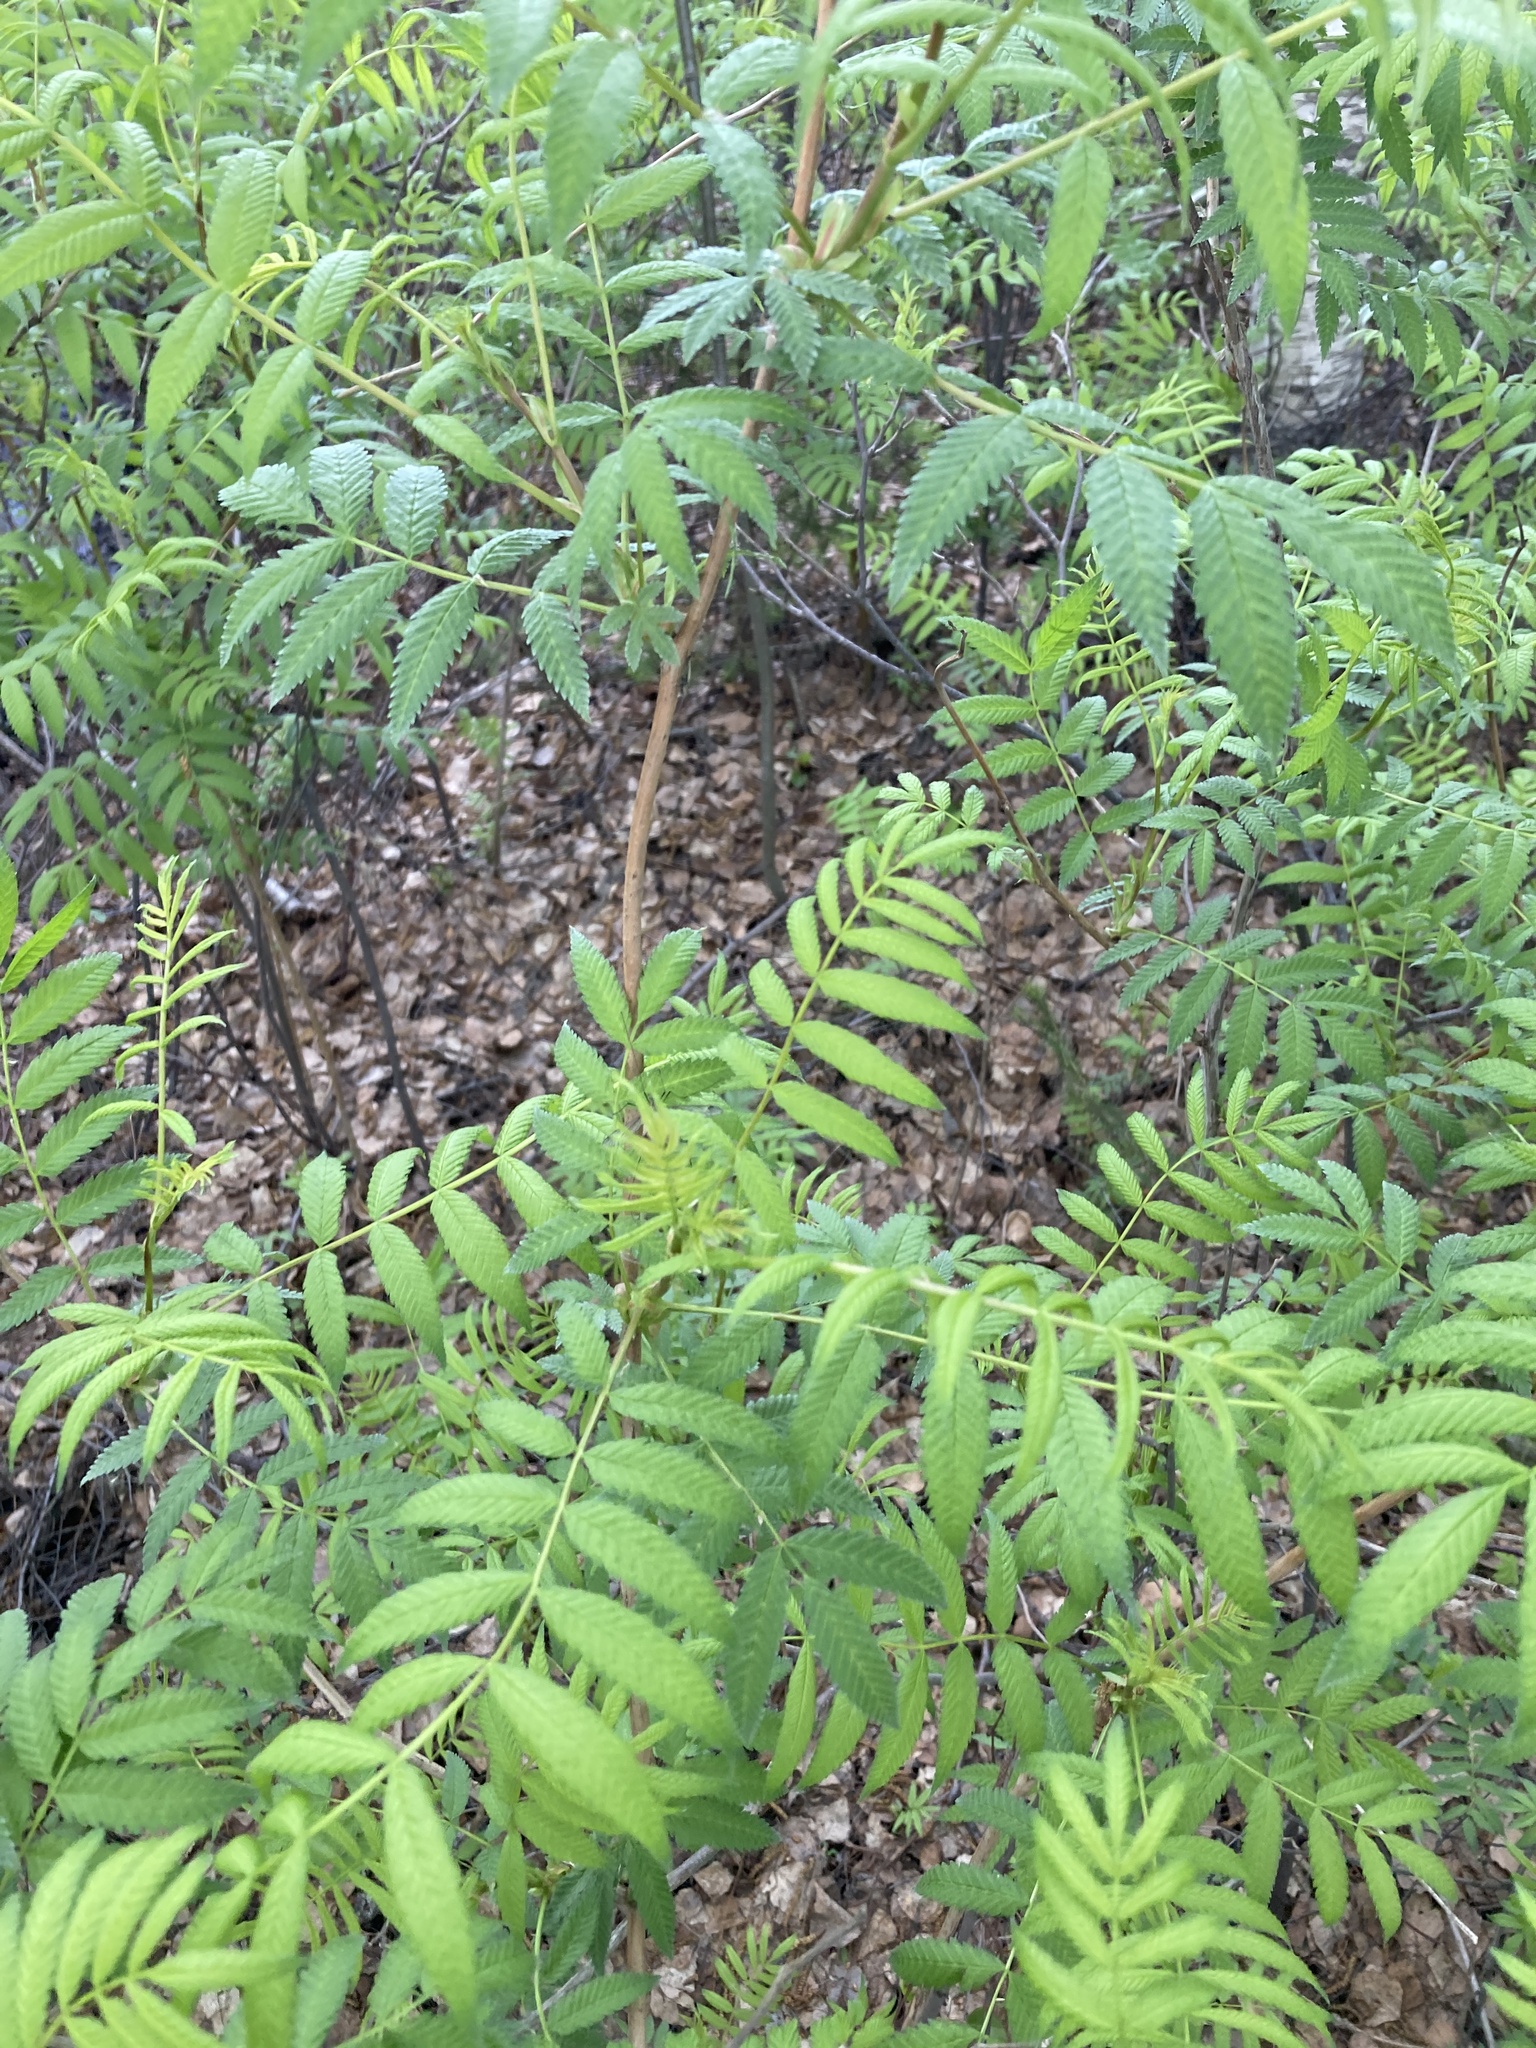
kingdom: Plantae
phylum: Tracheophyta
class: Magnoliopsida
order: Rosales
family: Rosaceae
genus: Sorbaria
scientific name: Sorbaria sorbifolia
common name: False spiraea
